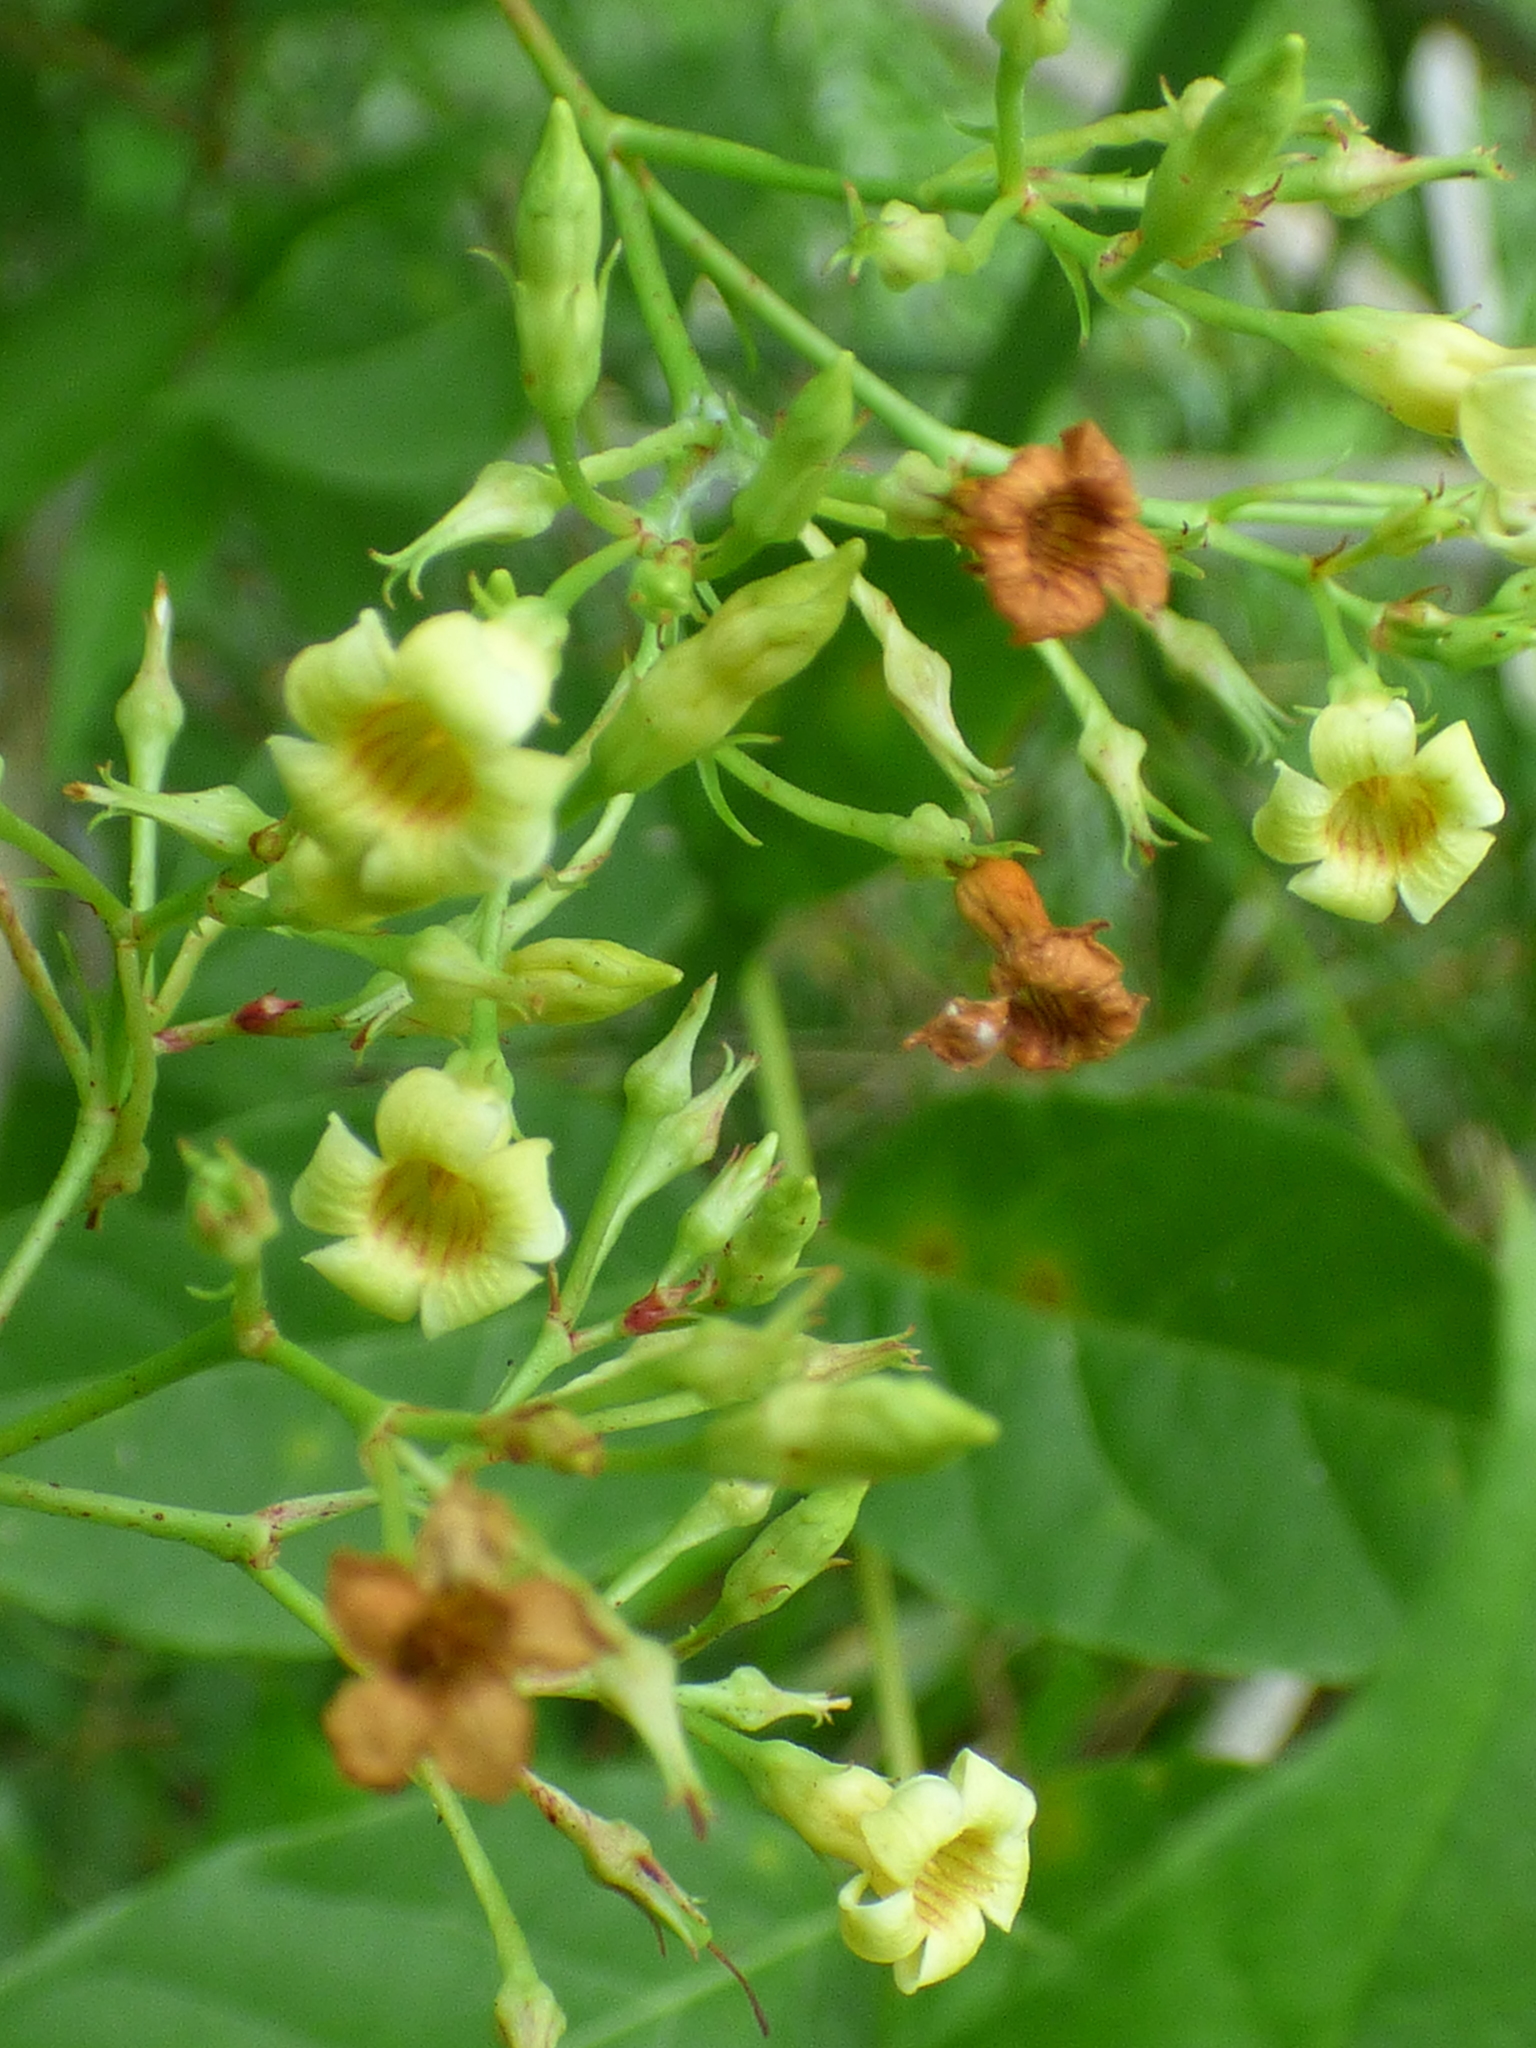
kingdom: Plantae
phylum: Tracheophyta
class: Magnoliopsida
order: Gentianales
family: Apocynaceae
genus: Thyrsanthella
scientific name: Thyrsanthella difformis
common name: Climbing dogbane
